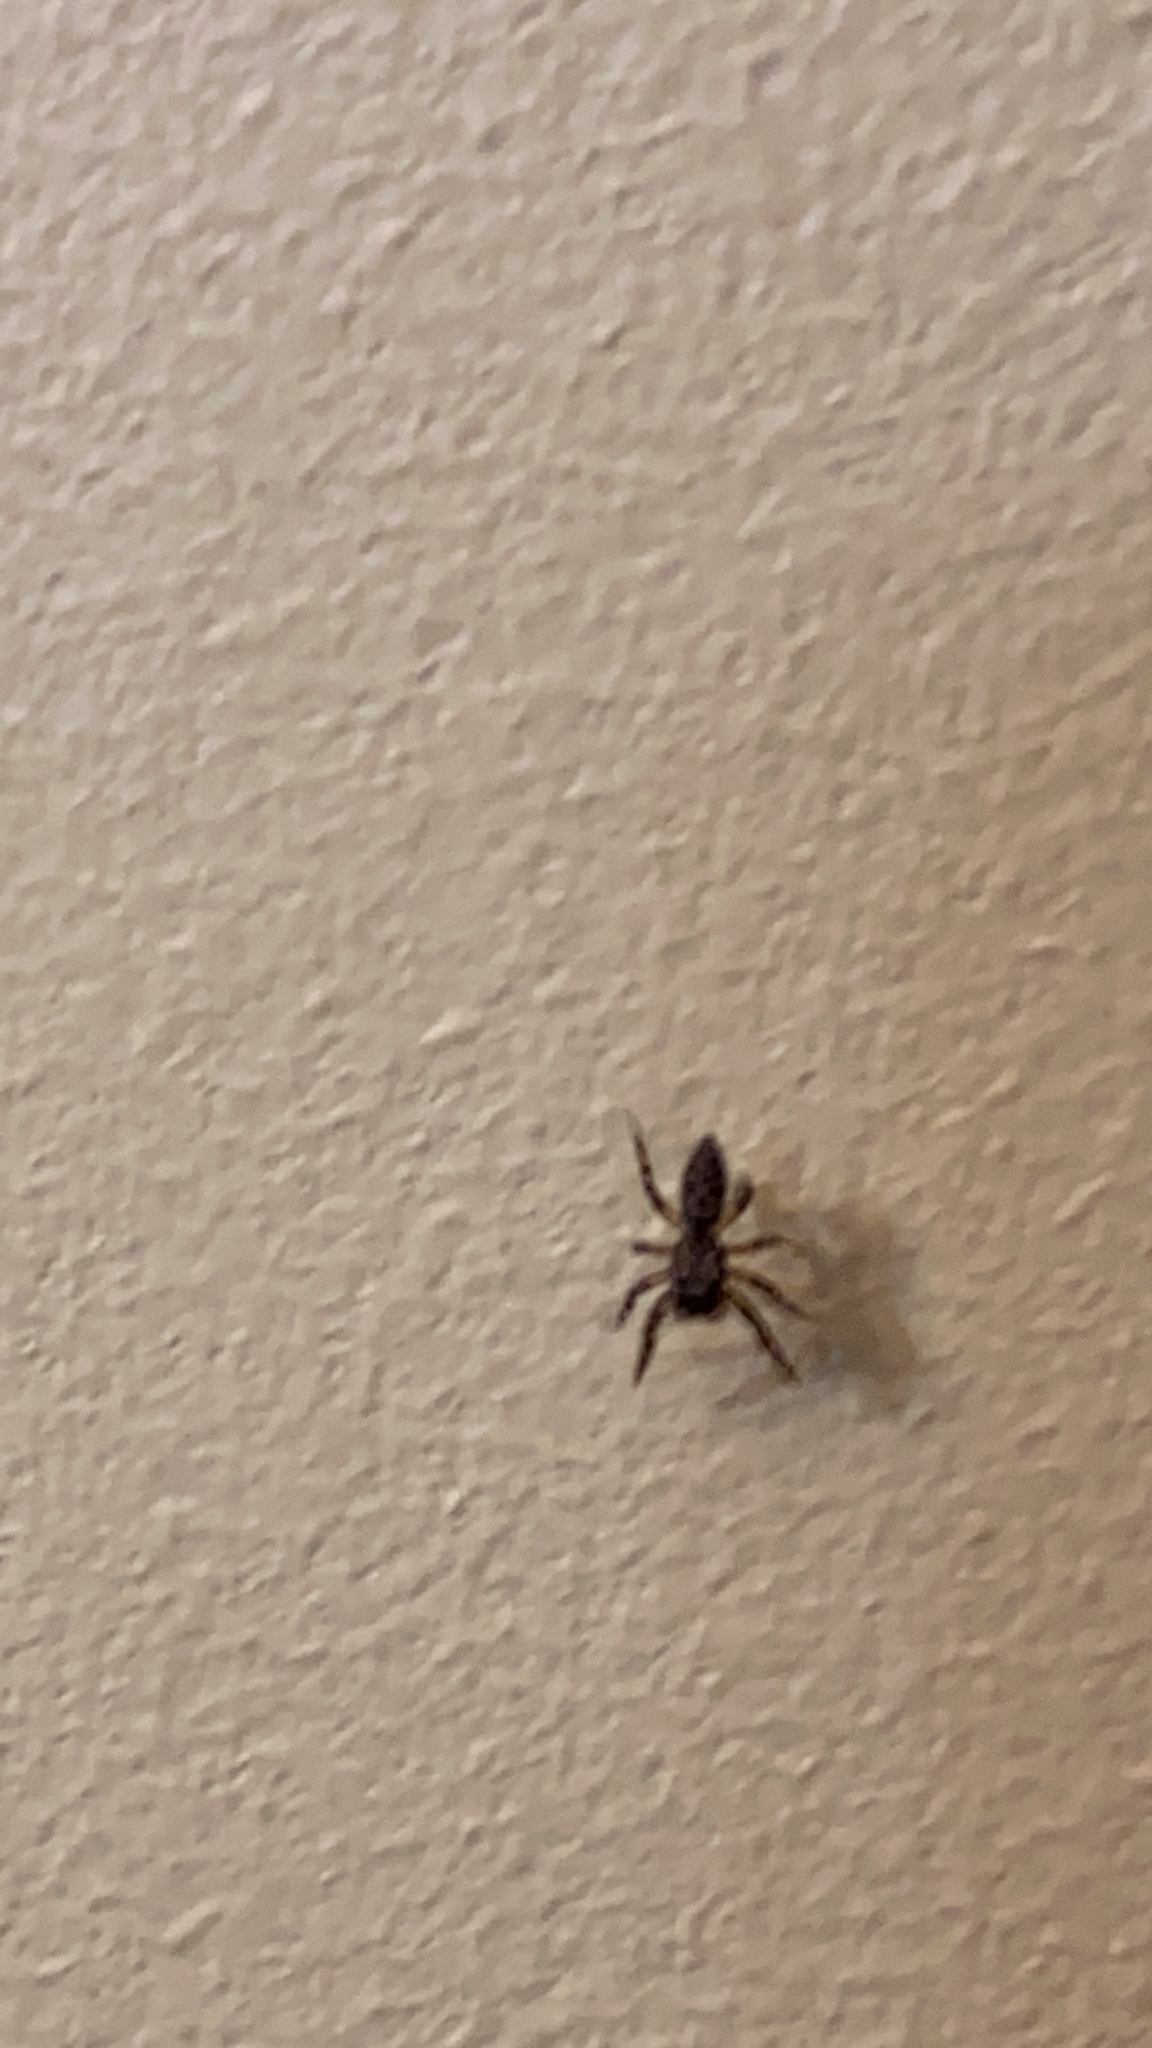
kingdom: Animalia
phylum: Arthropoda
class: Arachnida
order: Araneae
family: Salticidae
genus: Platycryptus
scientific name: Platycryptus undatus
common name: Tan jumping spider
